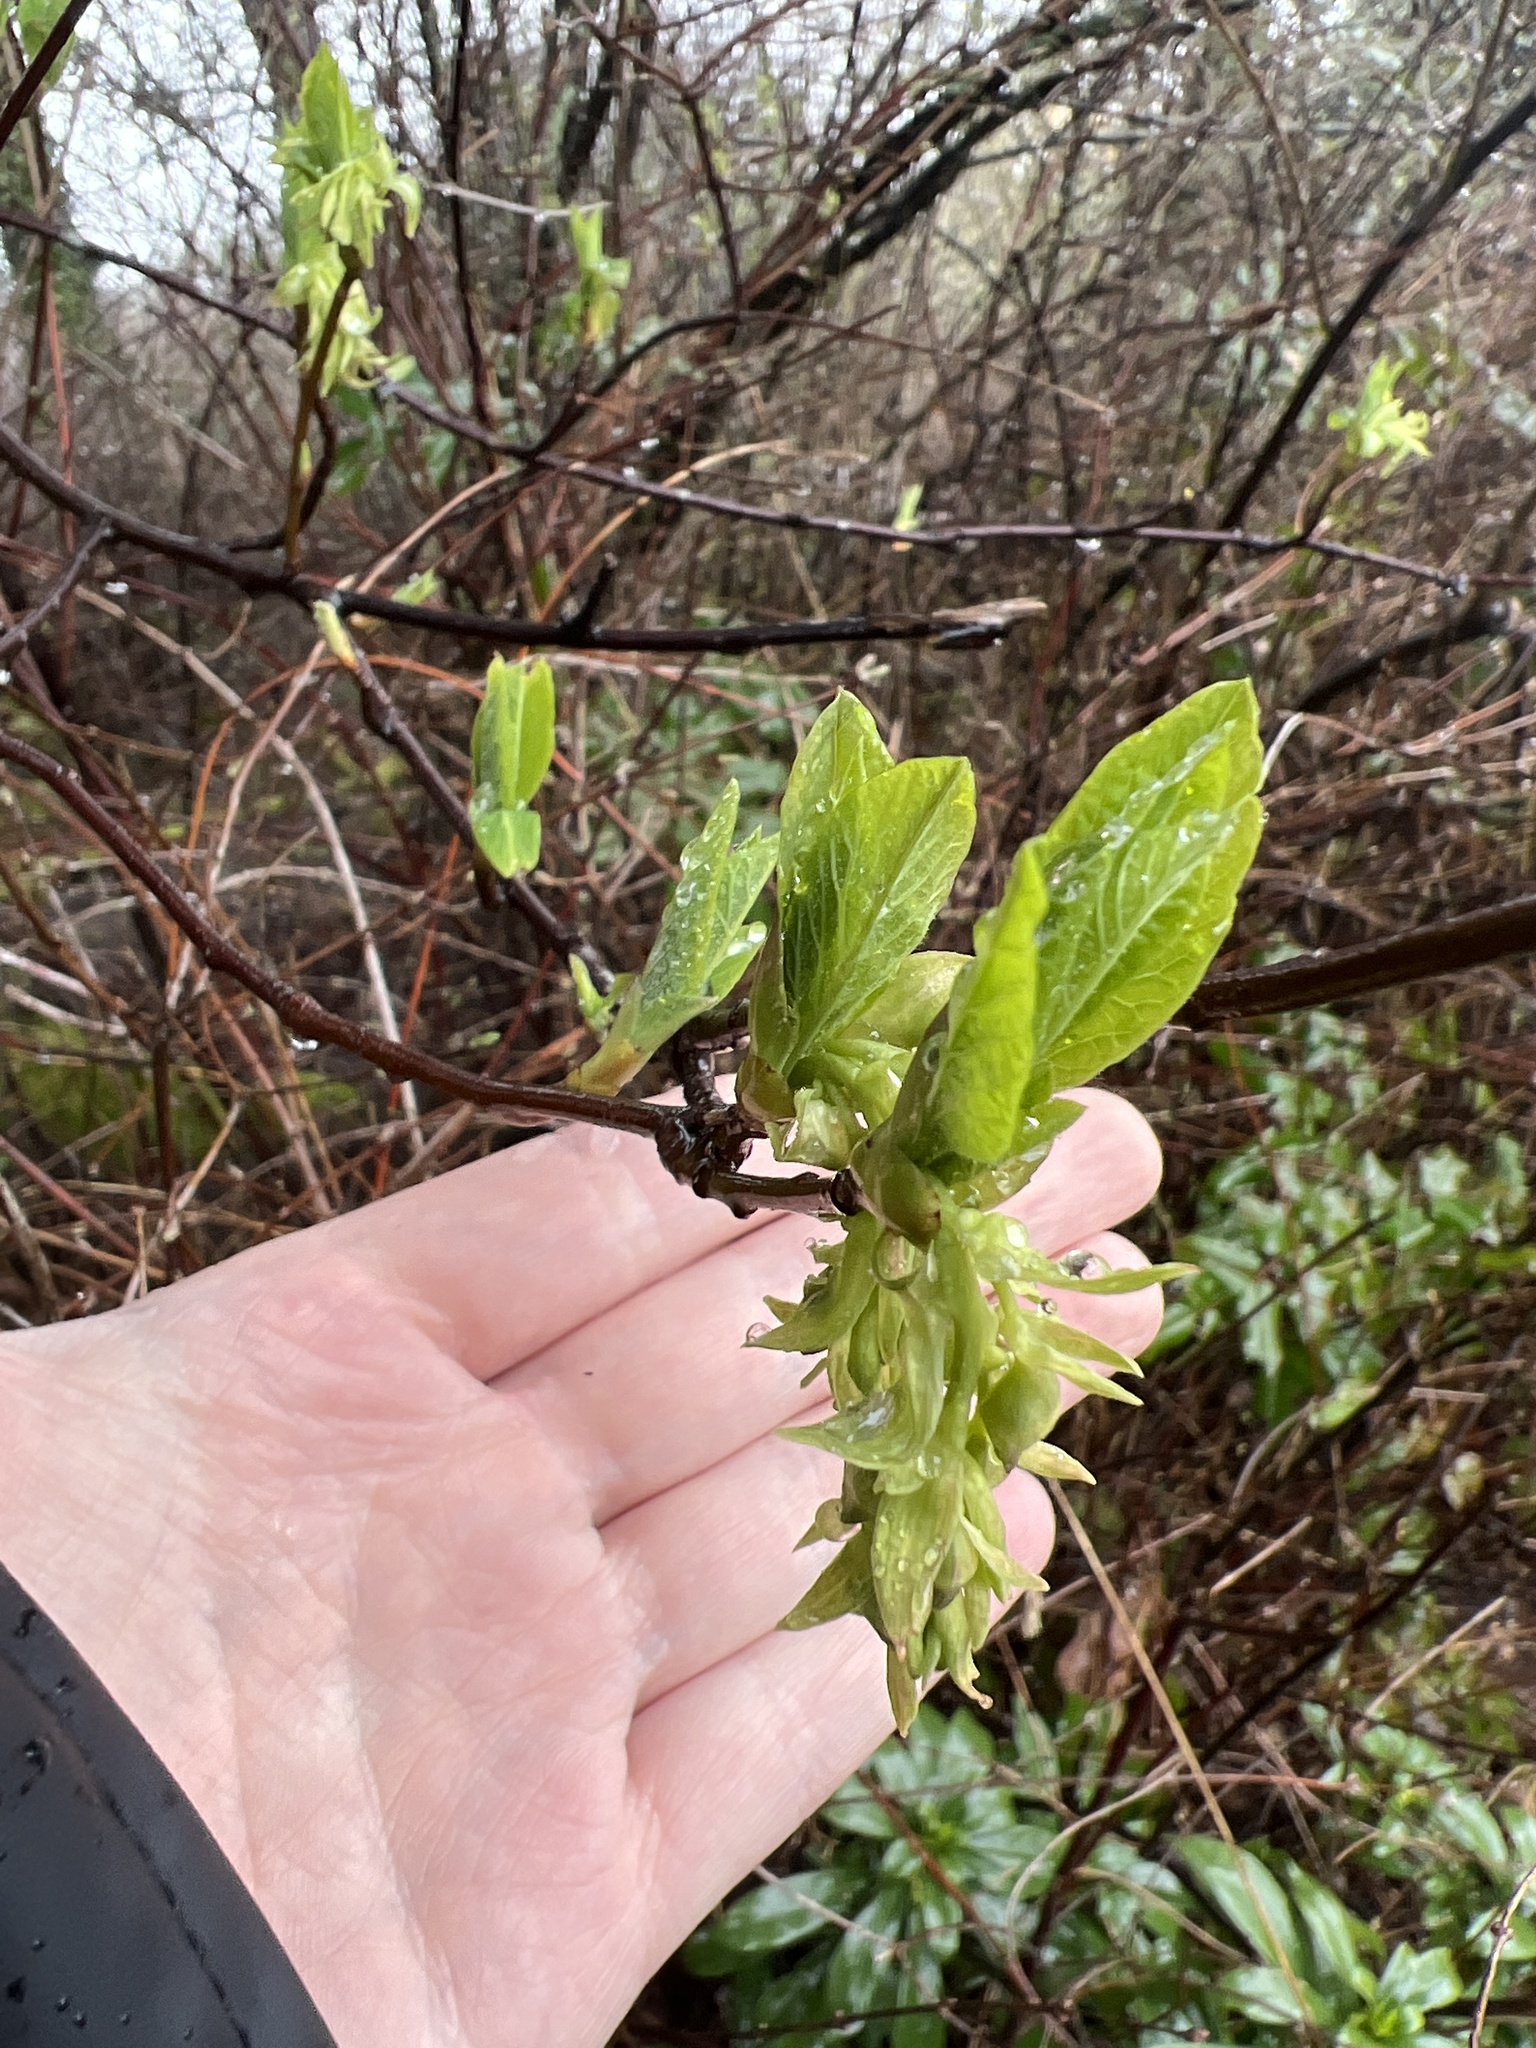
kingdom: Plantae
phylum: Tracheophyta
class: Magnoliopsida
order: Rosales
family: Rosaceae
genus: Oemleria
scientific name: Oemleria cerasiformis
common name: Osoberry
